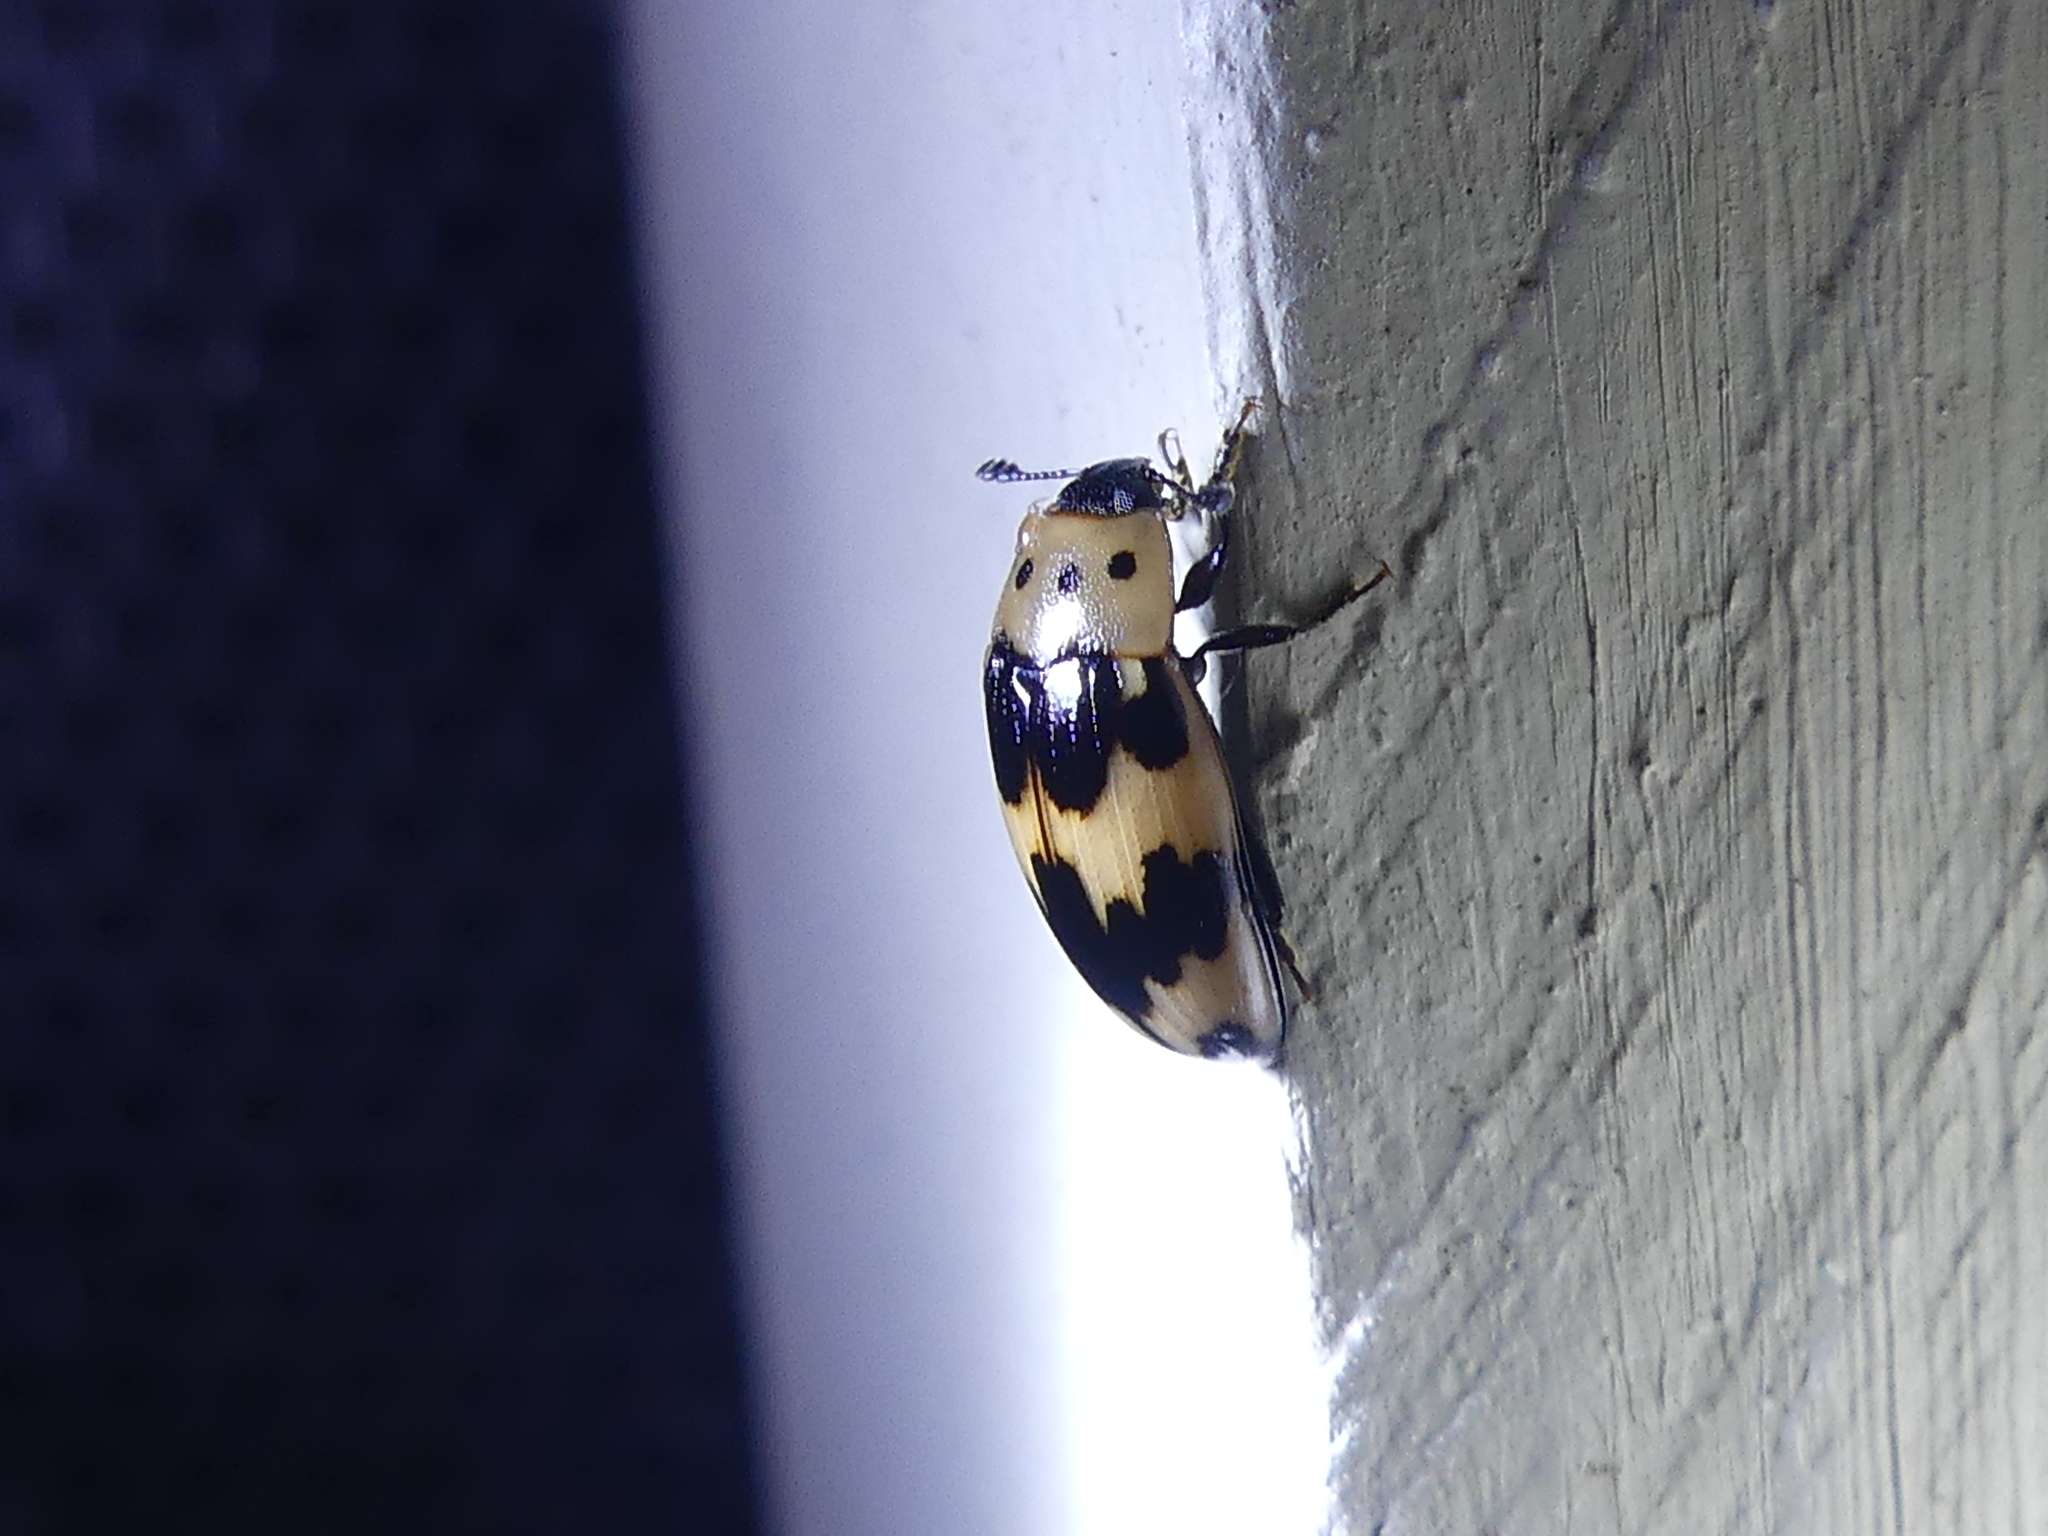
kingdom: Animalia
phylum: Arthropoda
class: Insecta
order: Coleoptera
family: Erotylidae
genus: Ischyrus
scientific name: Ischyrus quadripunctatus
